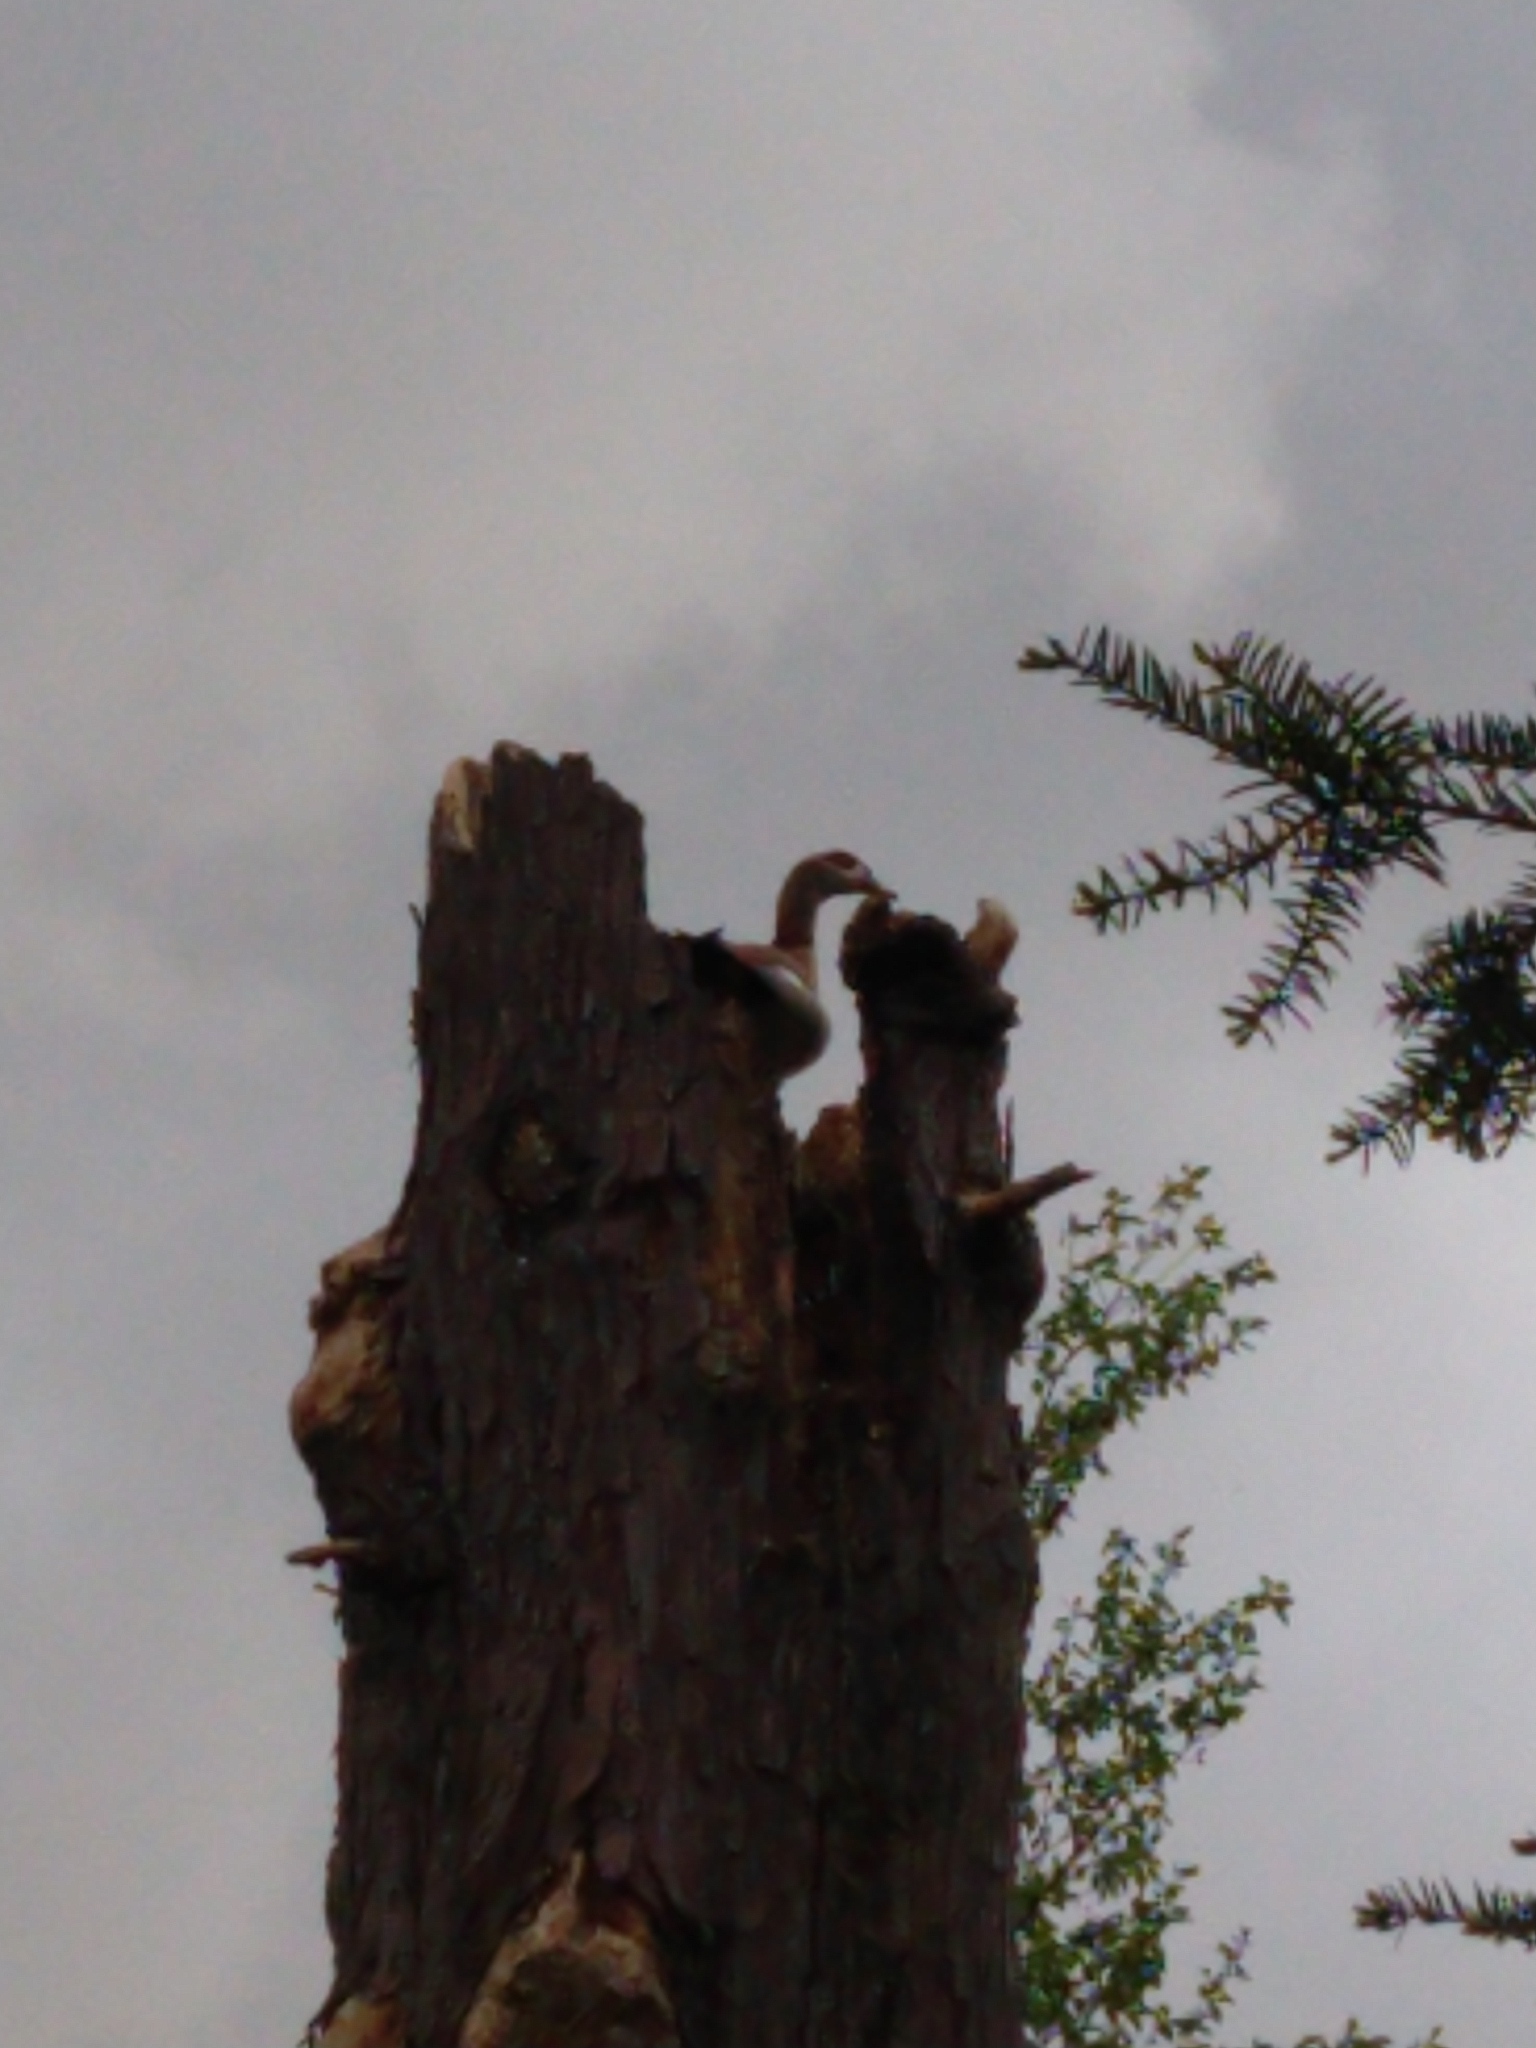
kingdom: Animalia
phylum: Chordata
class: Aves
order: Anseriformes
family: Anatidae
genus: Alopochen
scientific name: Alopochen aegyptiaca
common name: Egyptian goose
